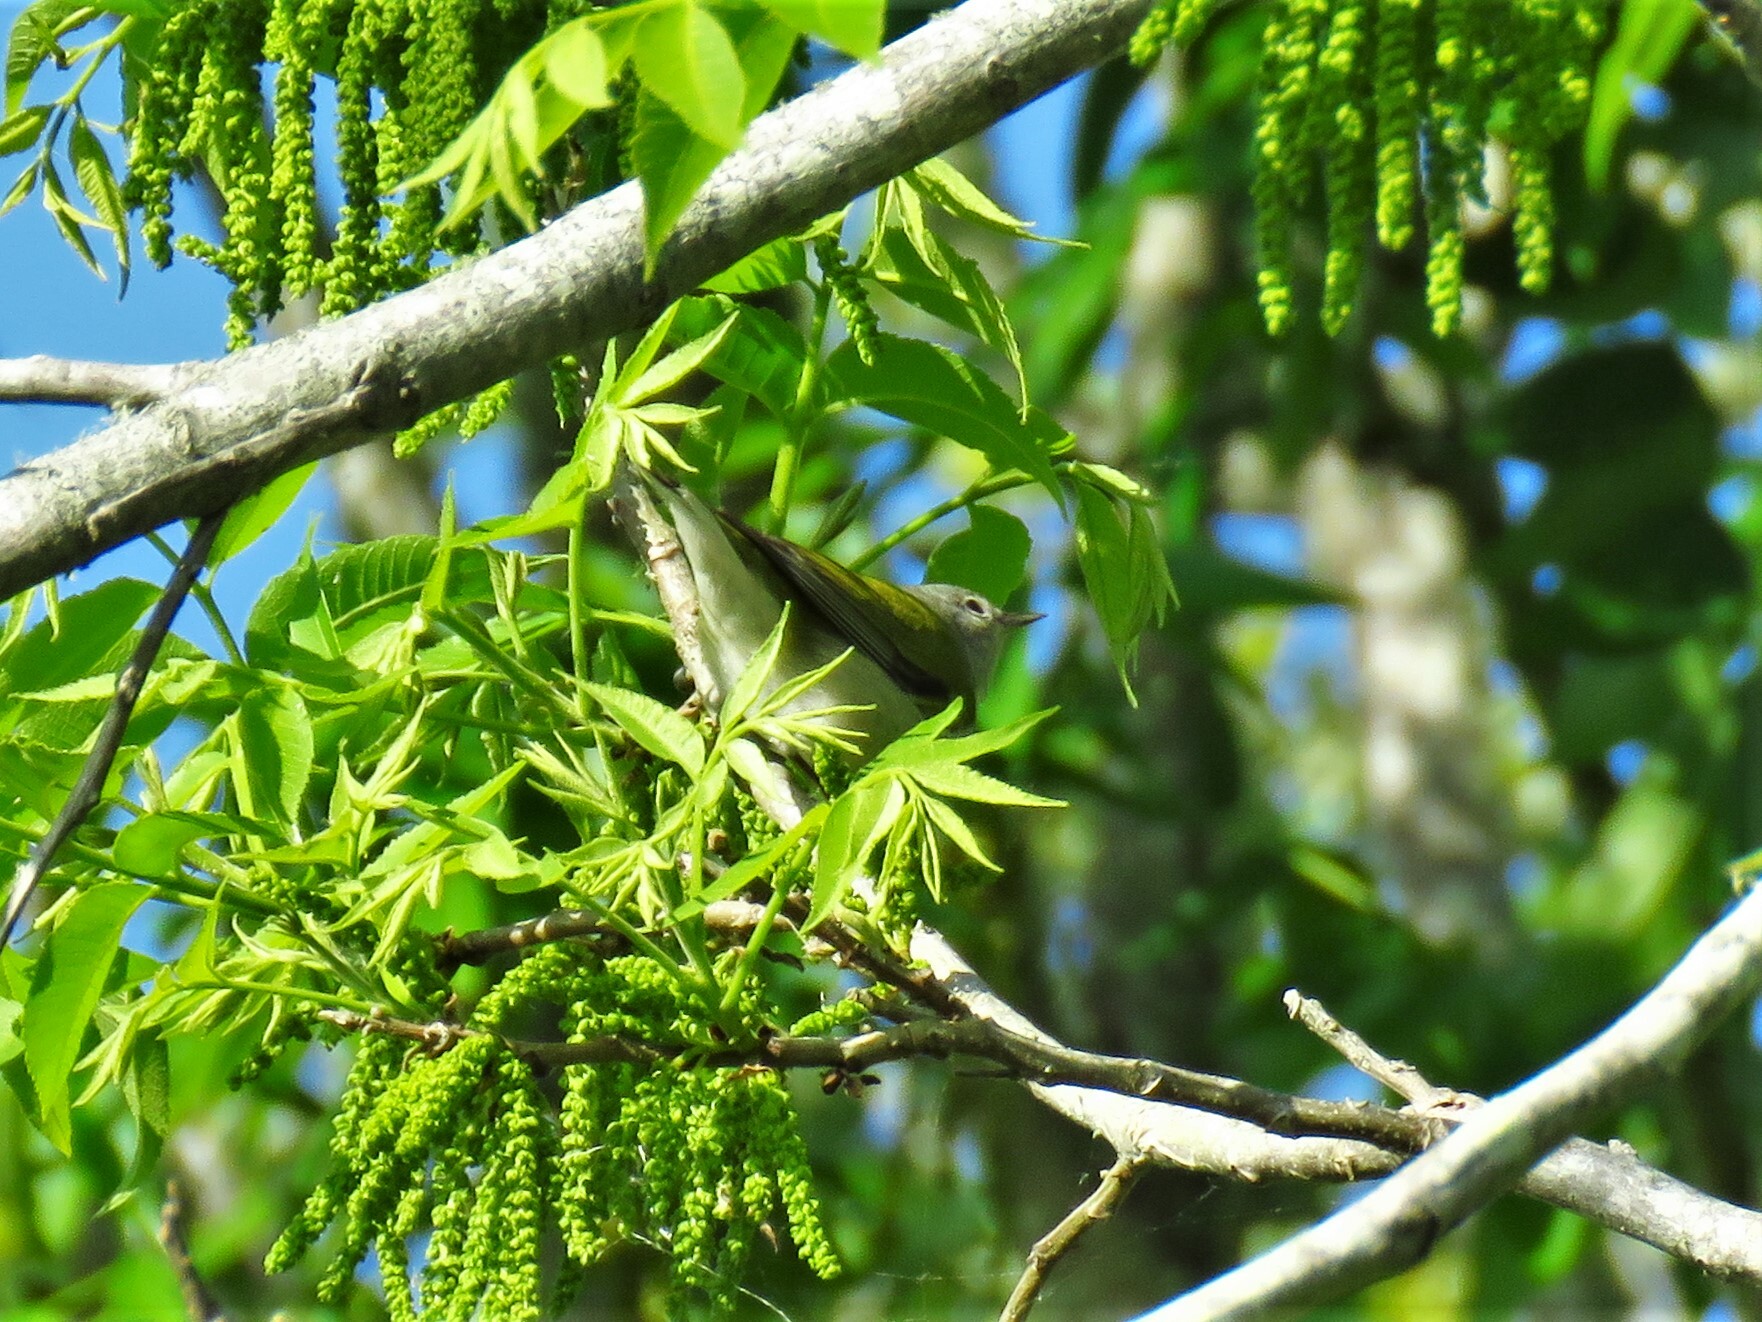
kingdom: Animalia
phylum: Chordata
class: Aves
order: Passeriformes
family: Parulidae
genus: Leiothlypis
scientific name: Leiothlypis peregrina
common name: Tennessee warbler
